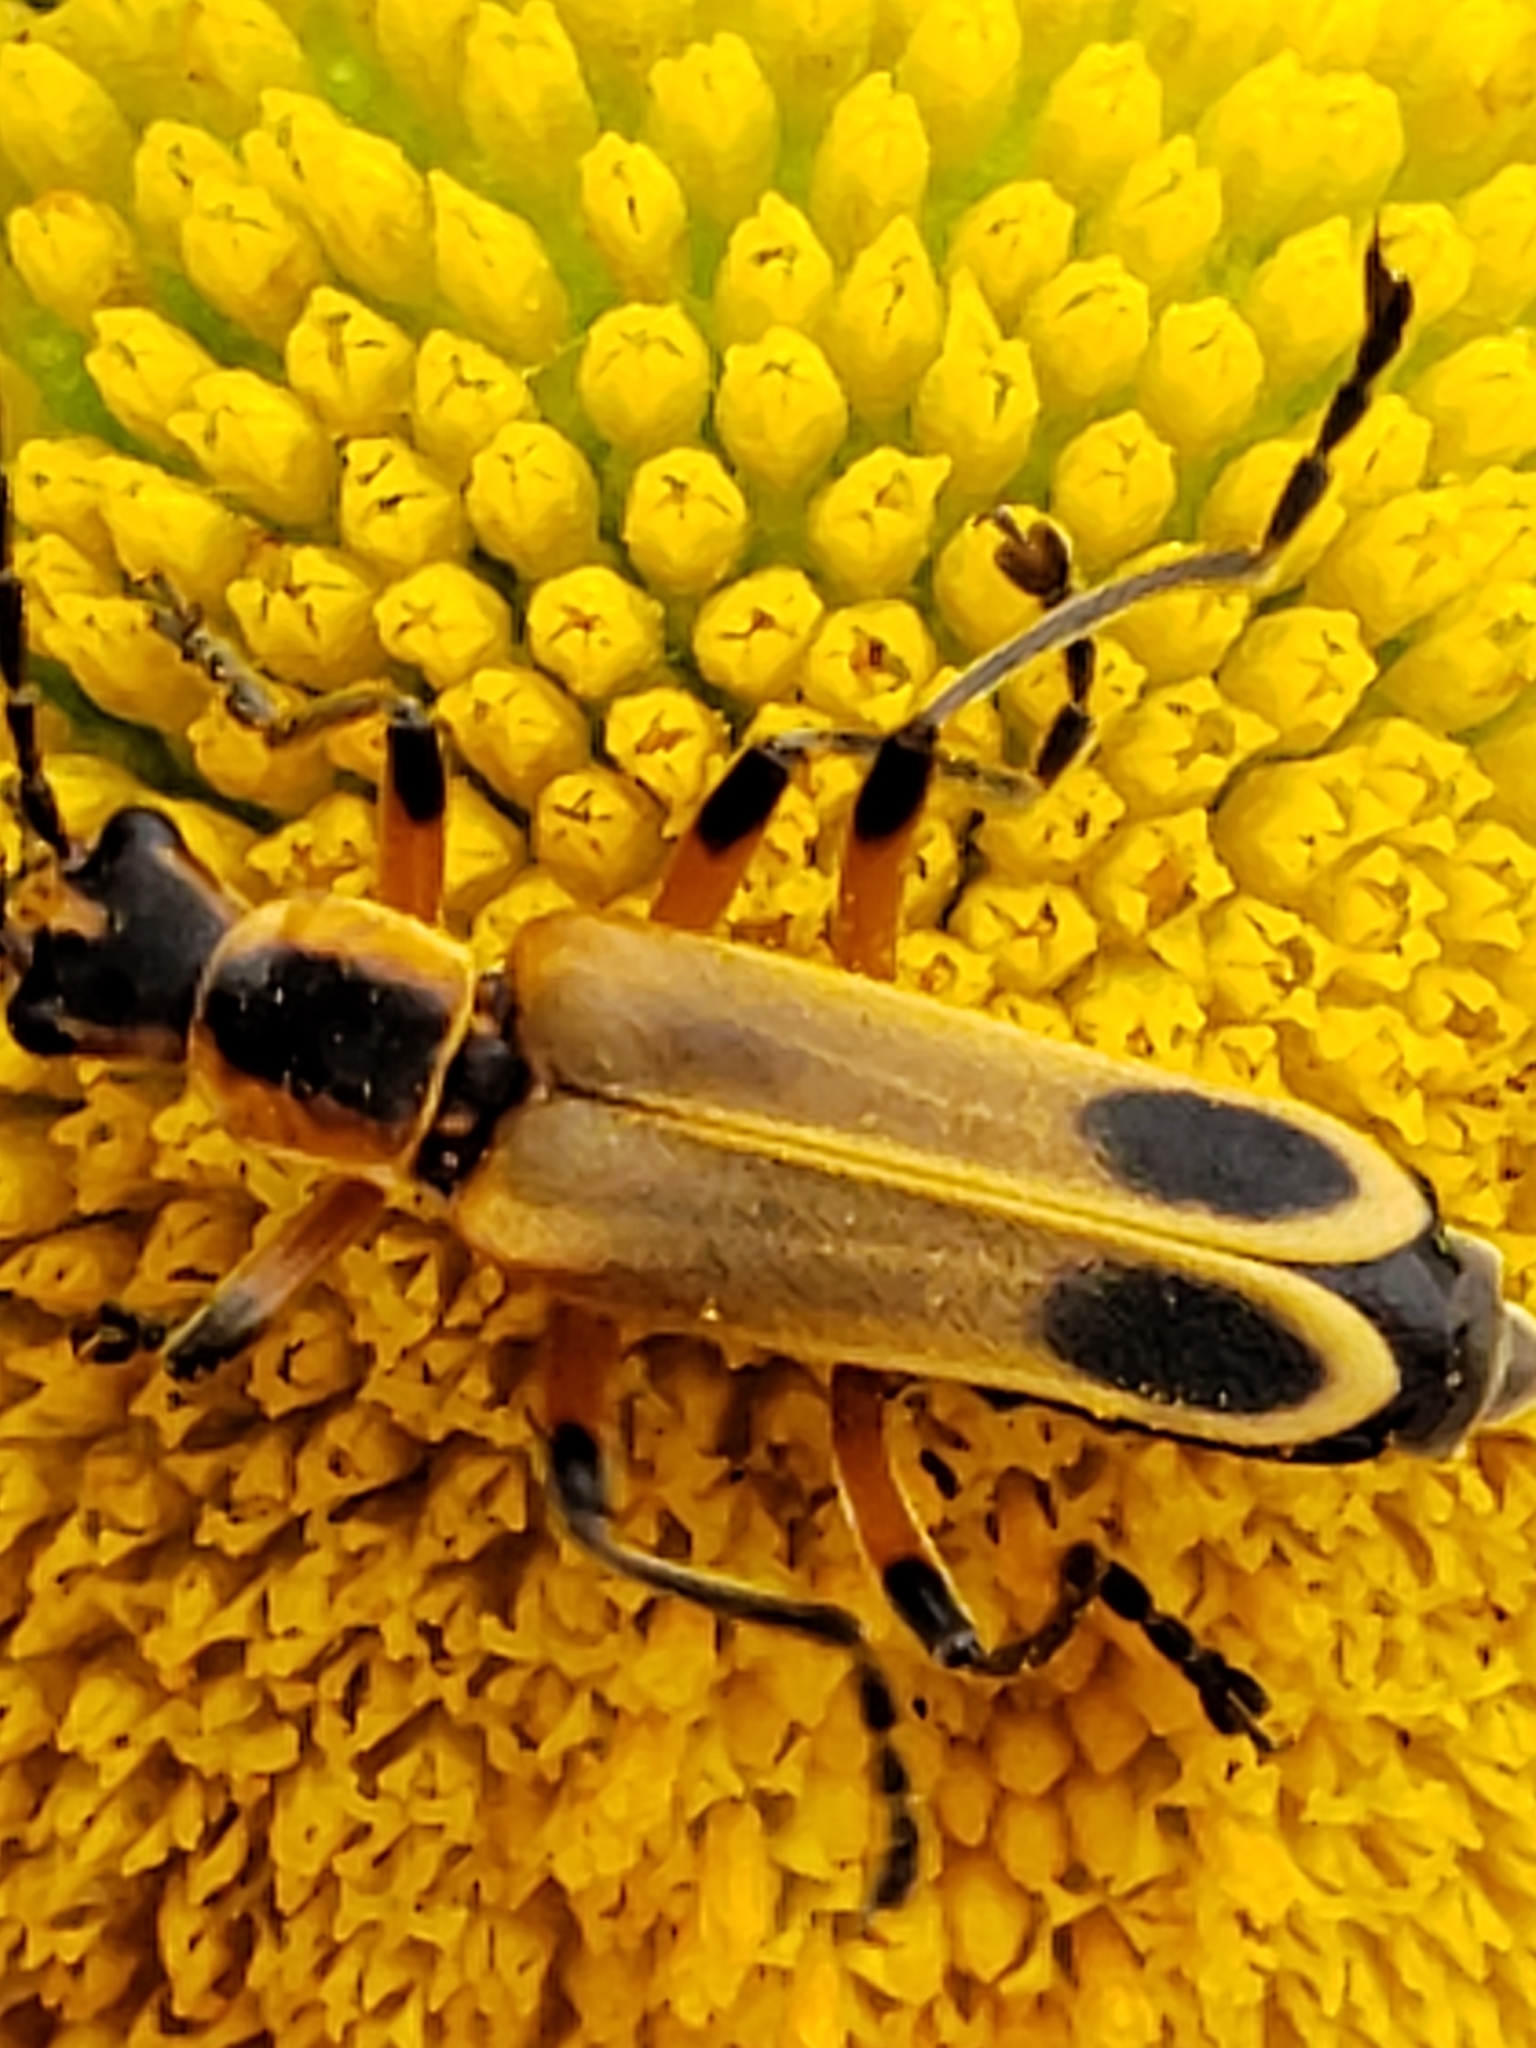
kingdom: Animalia
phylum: Arthropoda
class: Insecta
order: Coleoptera
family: Cantharidae
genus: Chauliognathus
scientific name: Chauliognathus marginatus
